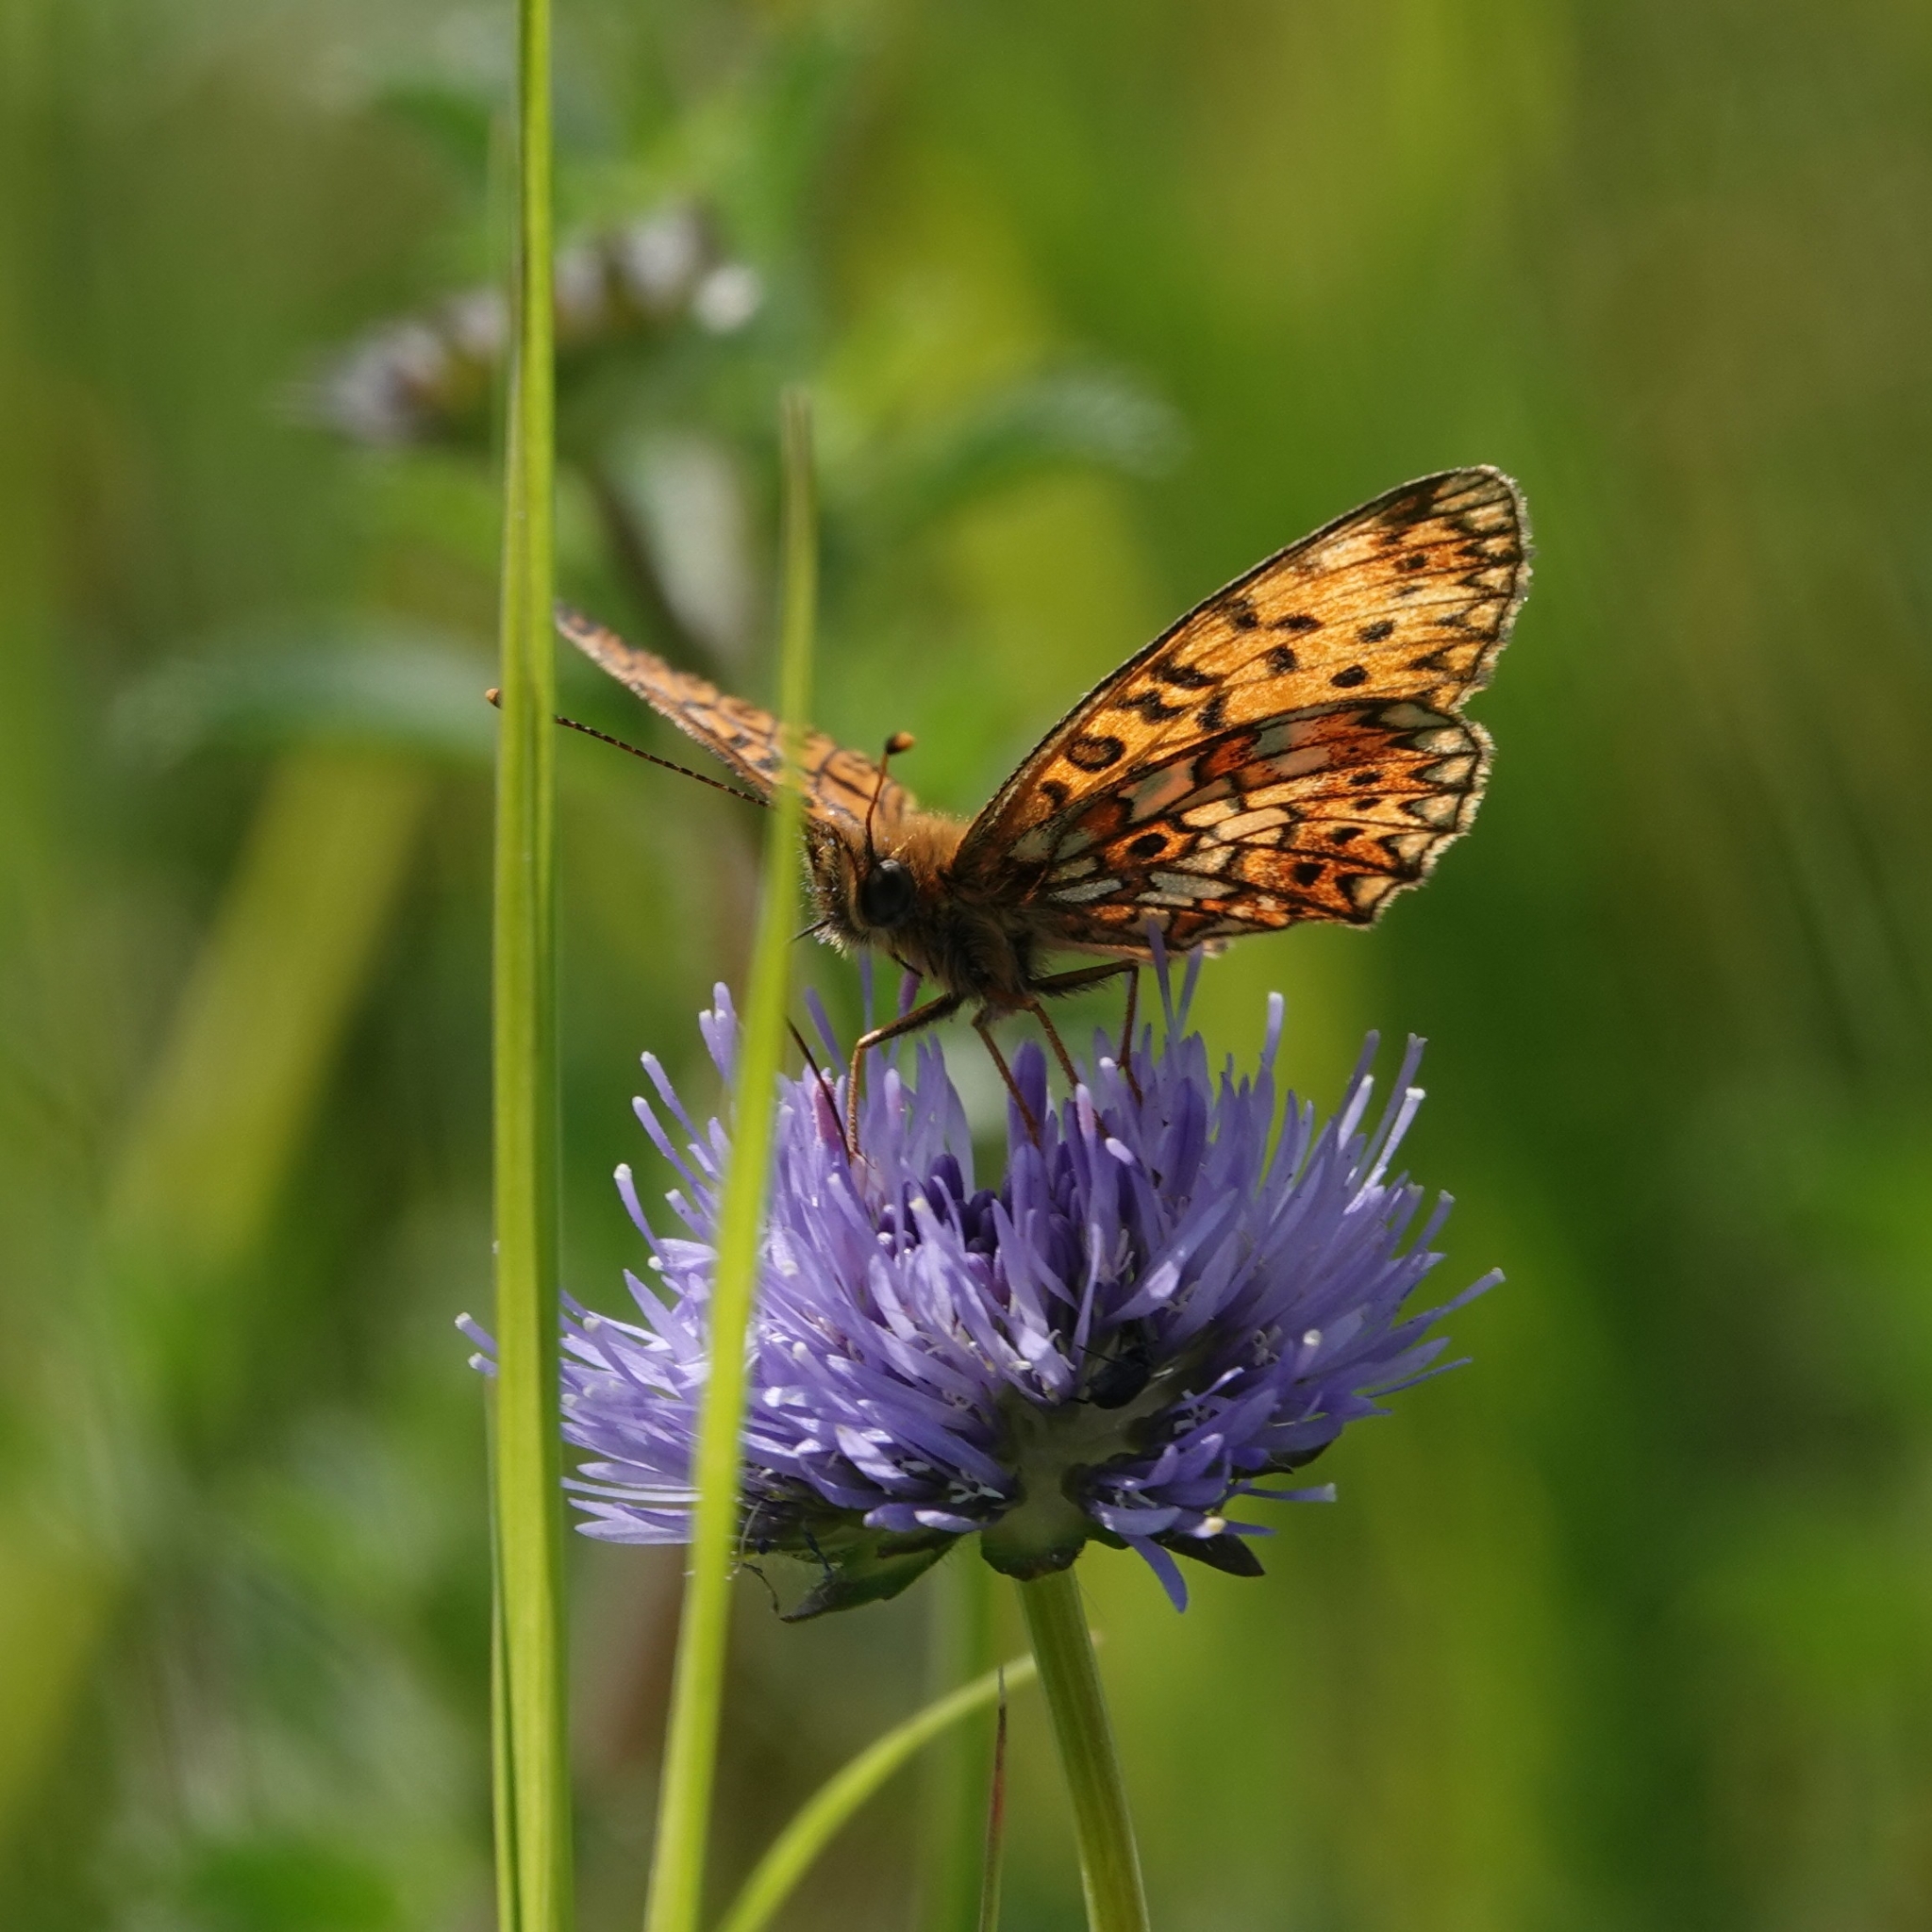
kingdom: Animalia
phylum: Arthropoda
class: Insecta
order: Lepidoptera
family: Nymphalidae
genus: Boloria
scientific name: Boloria selene
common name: Small pearl-bordered fritillary
